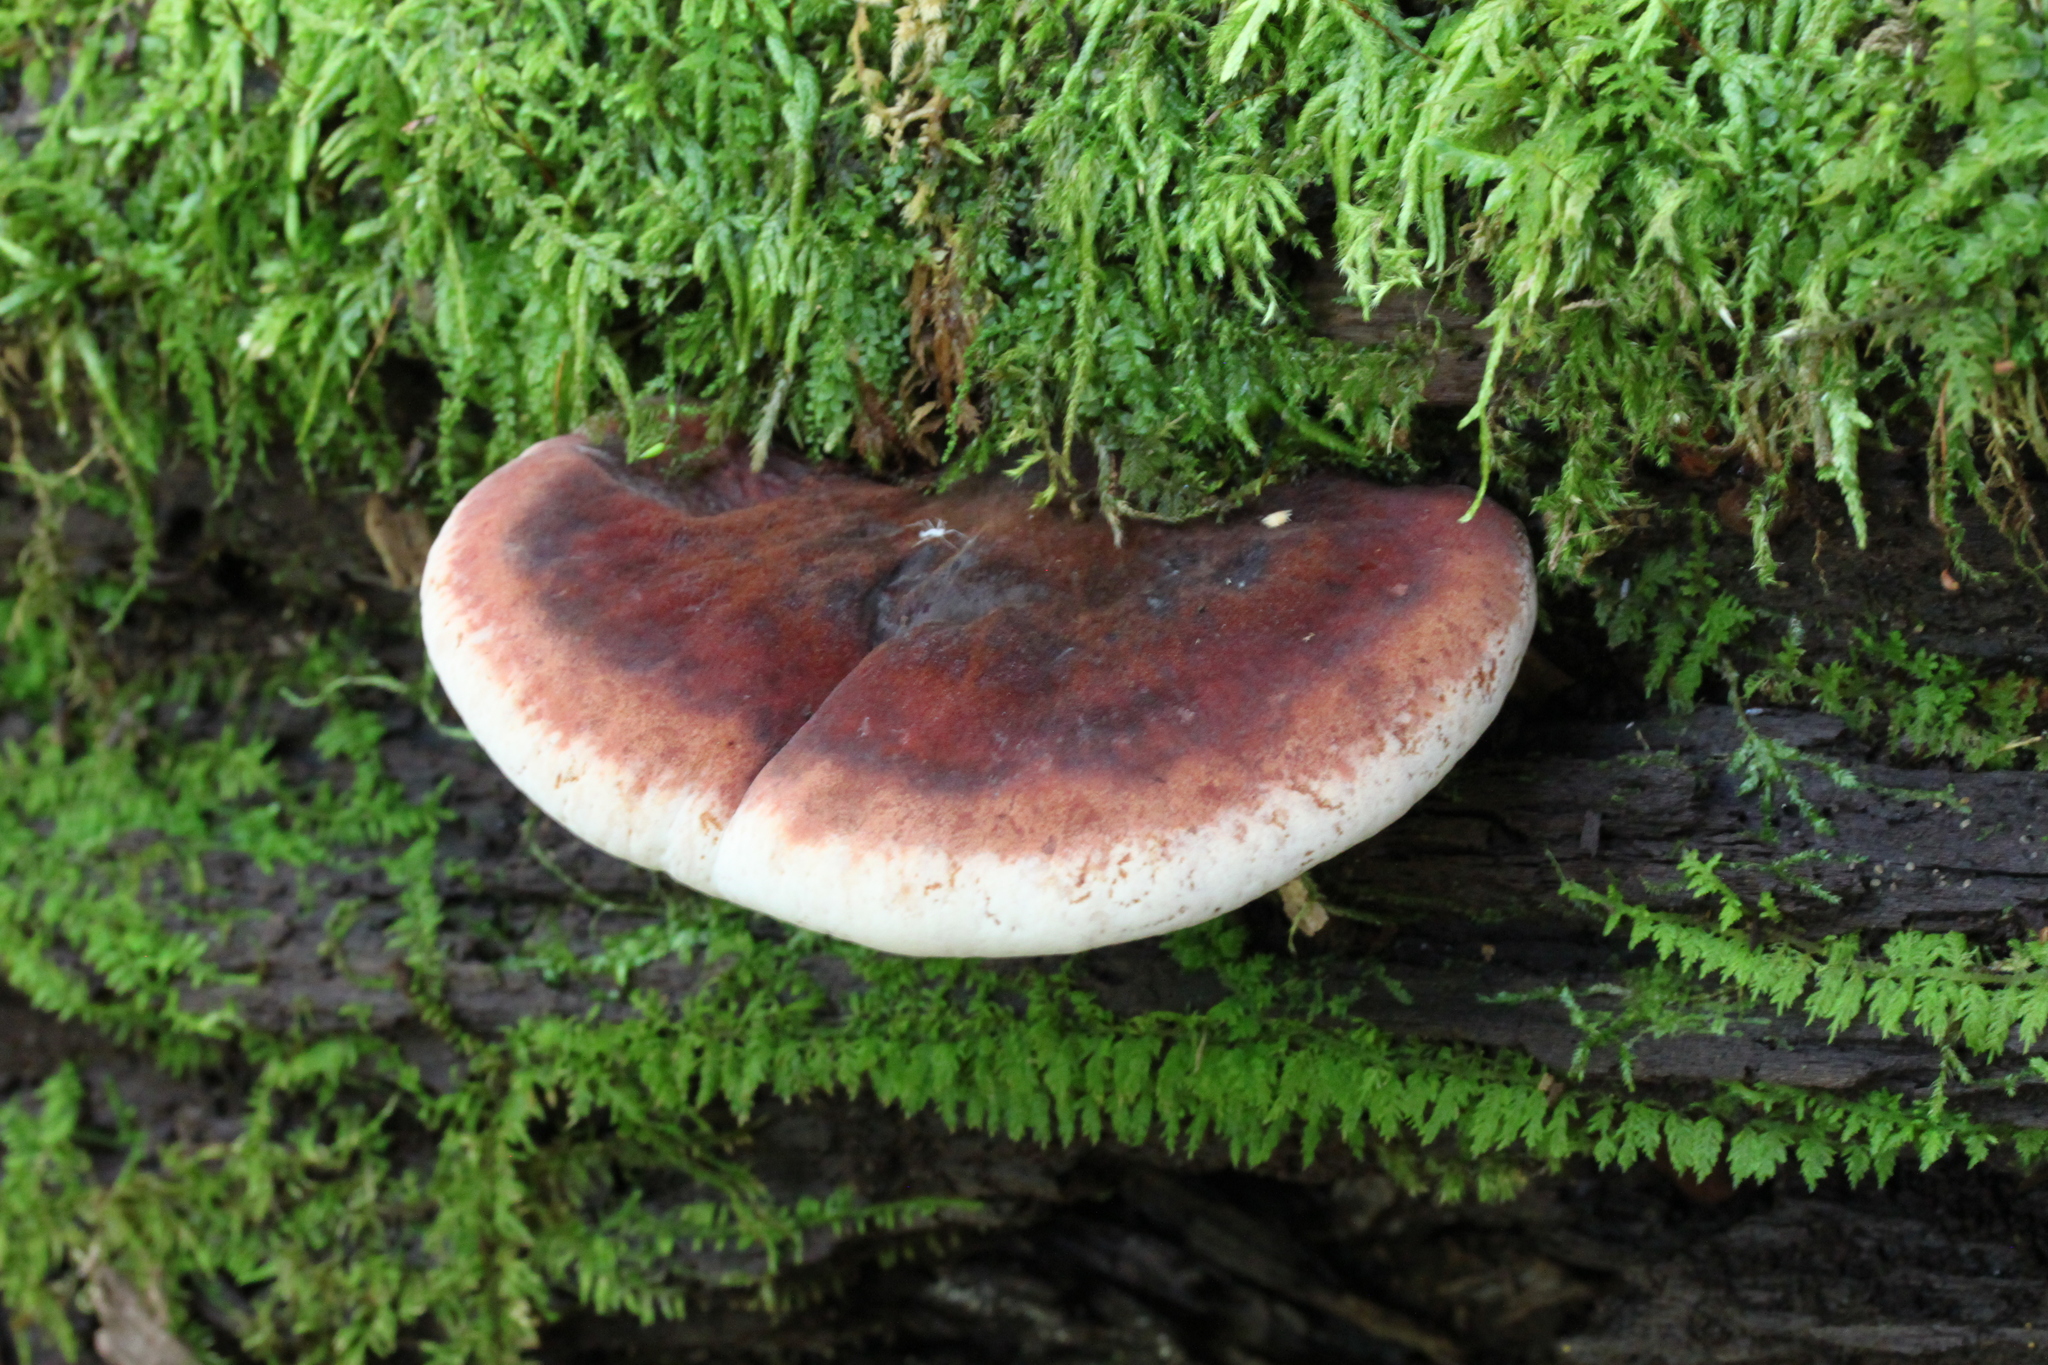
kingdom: Fungi
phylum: Basidiomycota
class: Agaricomycetes
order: Polyporales
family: Ischnodermataceae
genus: Ischnoderma
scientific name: Ischnoderma resinosum
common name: Resinous polypore
